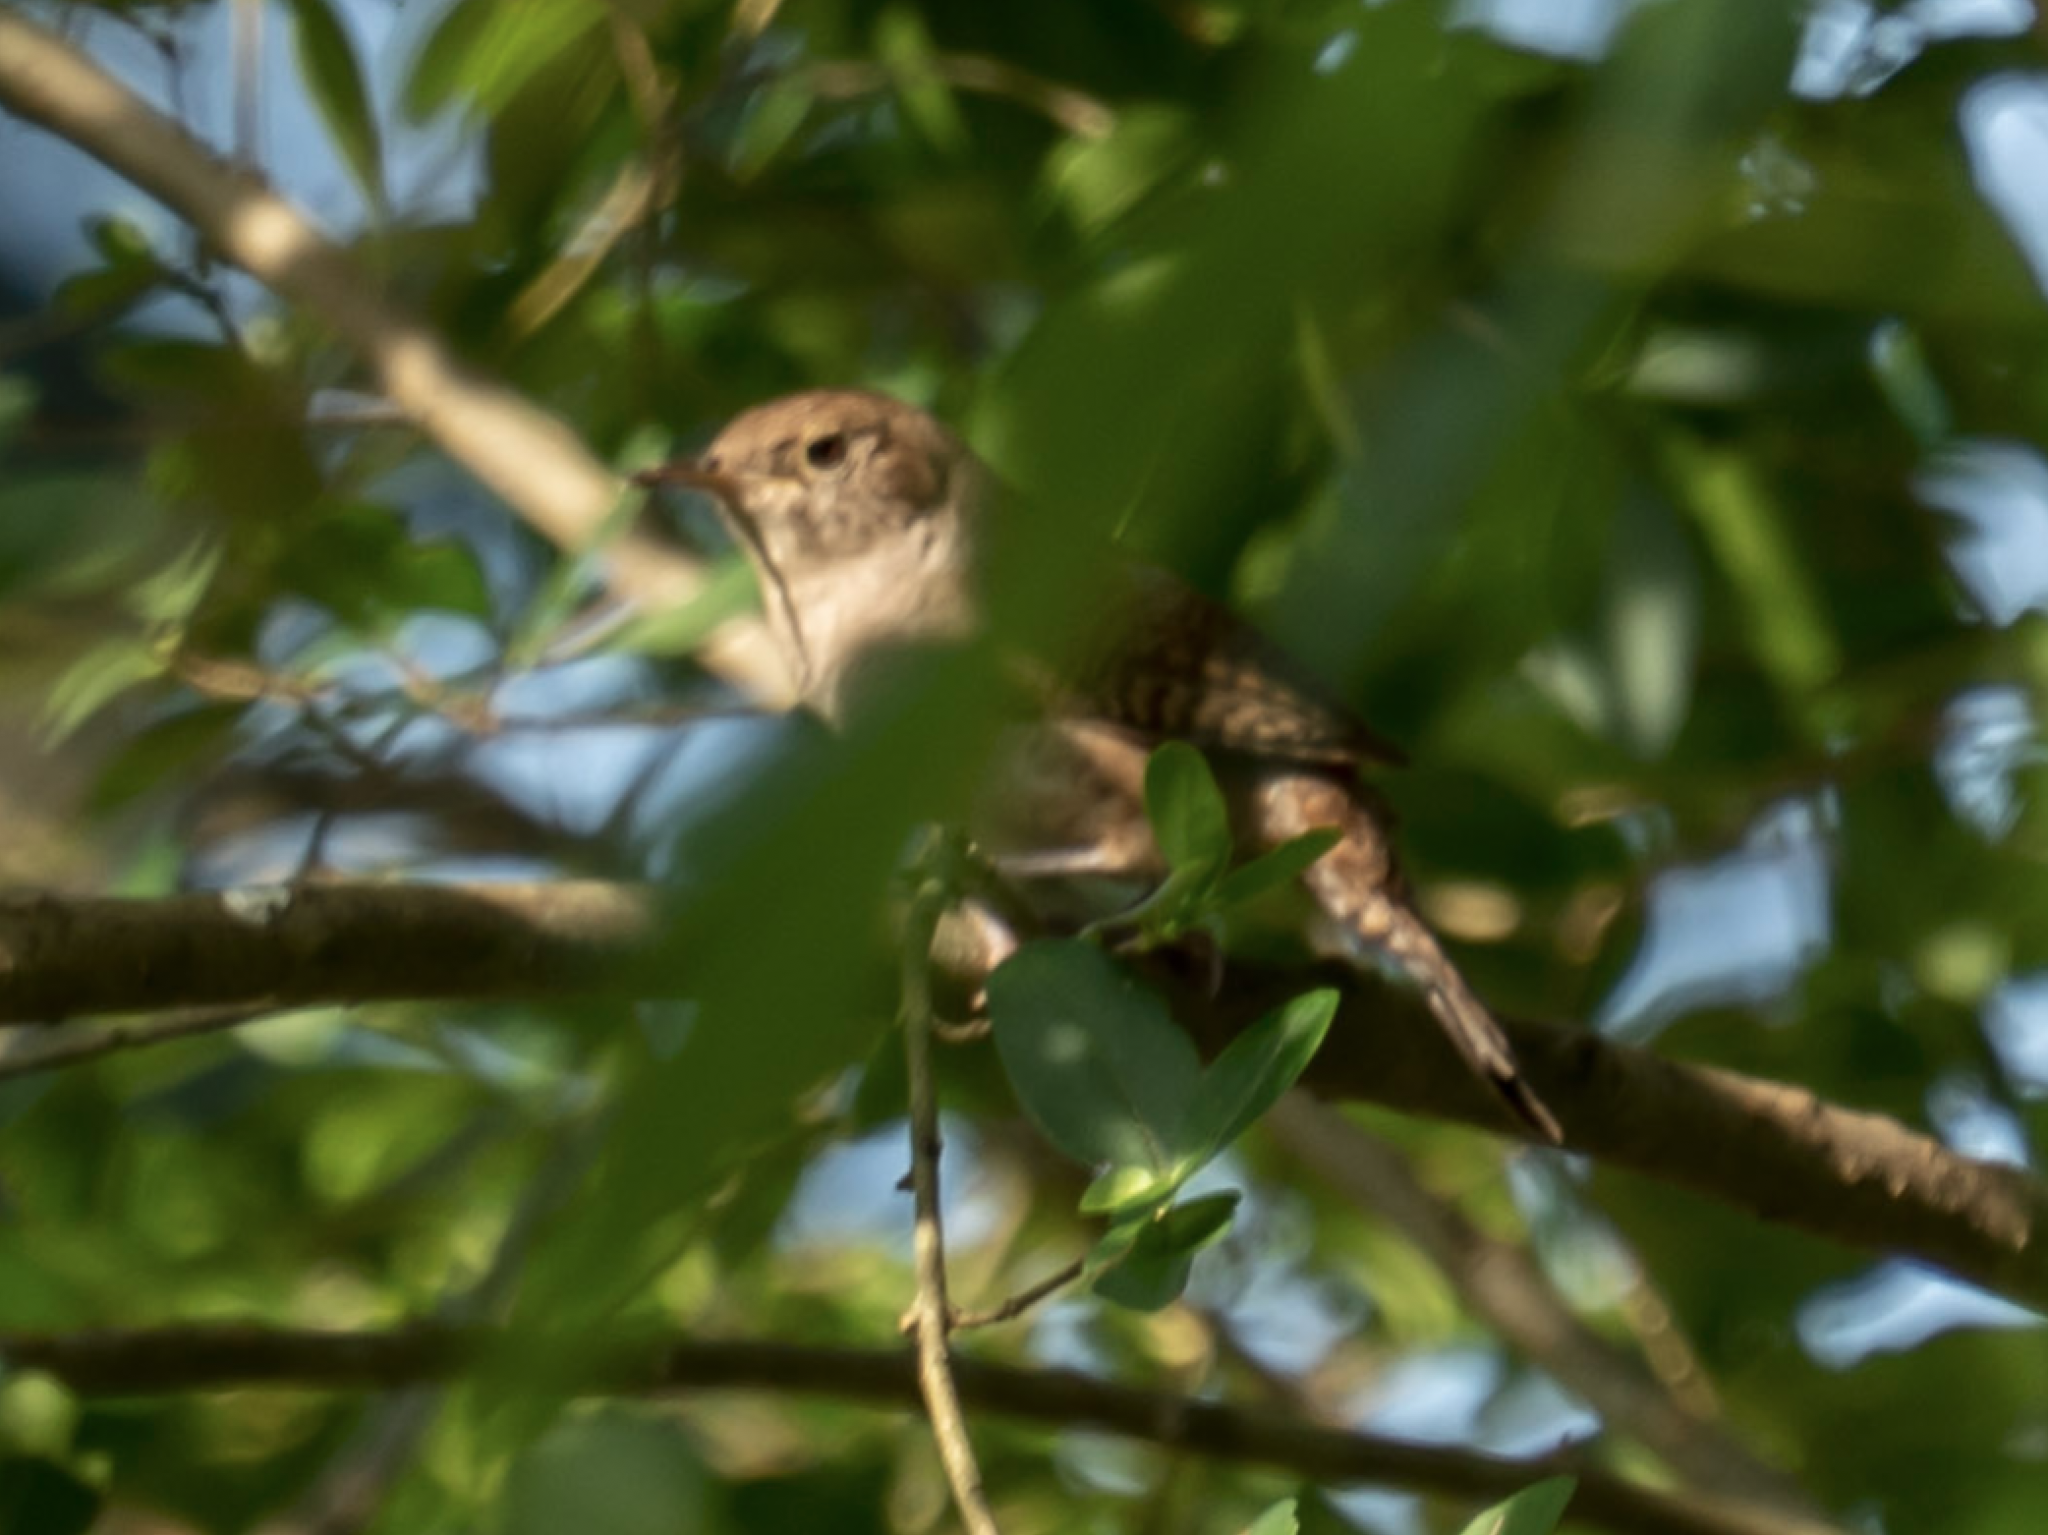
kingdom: Animalia
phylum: Chordata
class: Aves
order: Passeriformes
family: Troglodytidae
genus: Troglodytes
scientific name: Troglodytes aedon
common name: House wren
